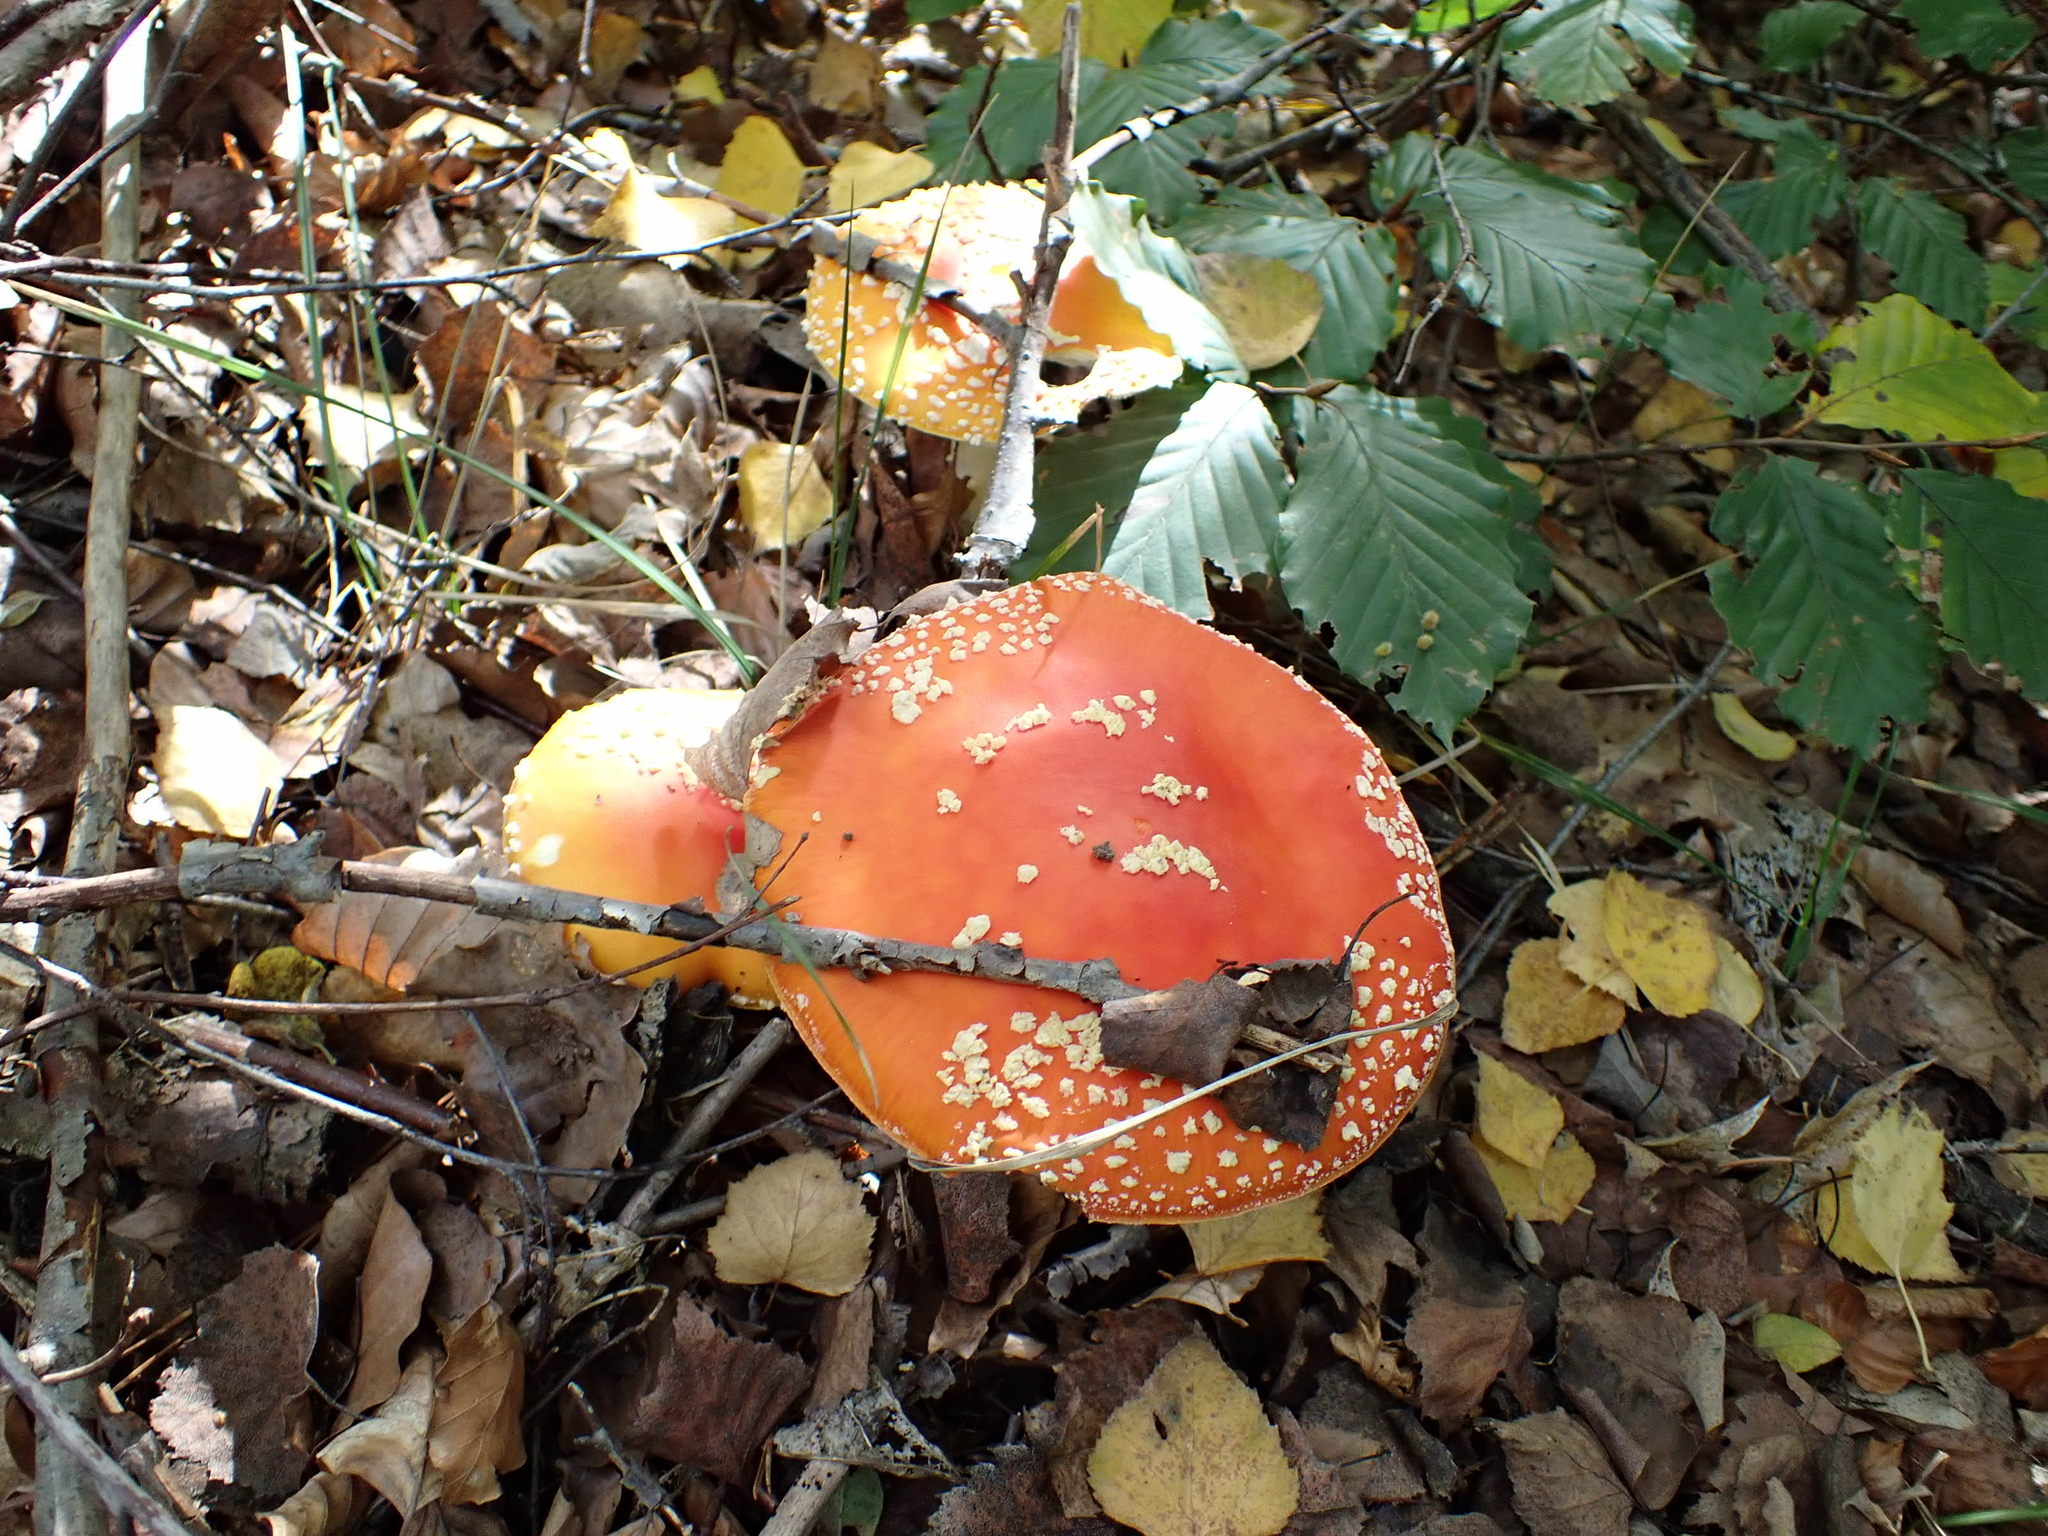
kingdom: Fungi
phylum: Basidiomycota
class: Agaricomycetes
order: Agaricales
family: Amanitaceae
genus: Amanita
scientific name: Amanita muscaria
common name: Fly agaric
